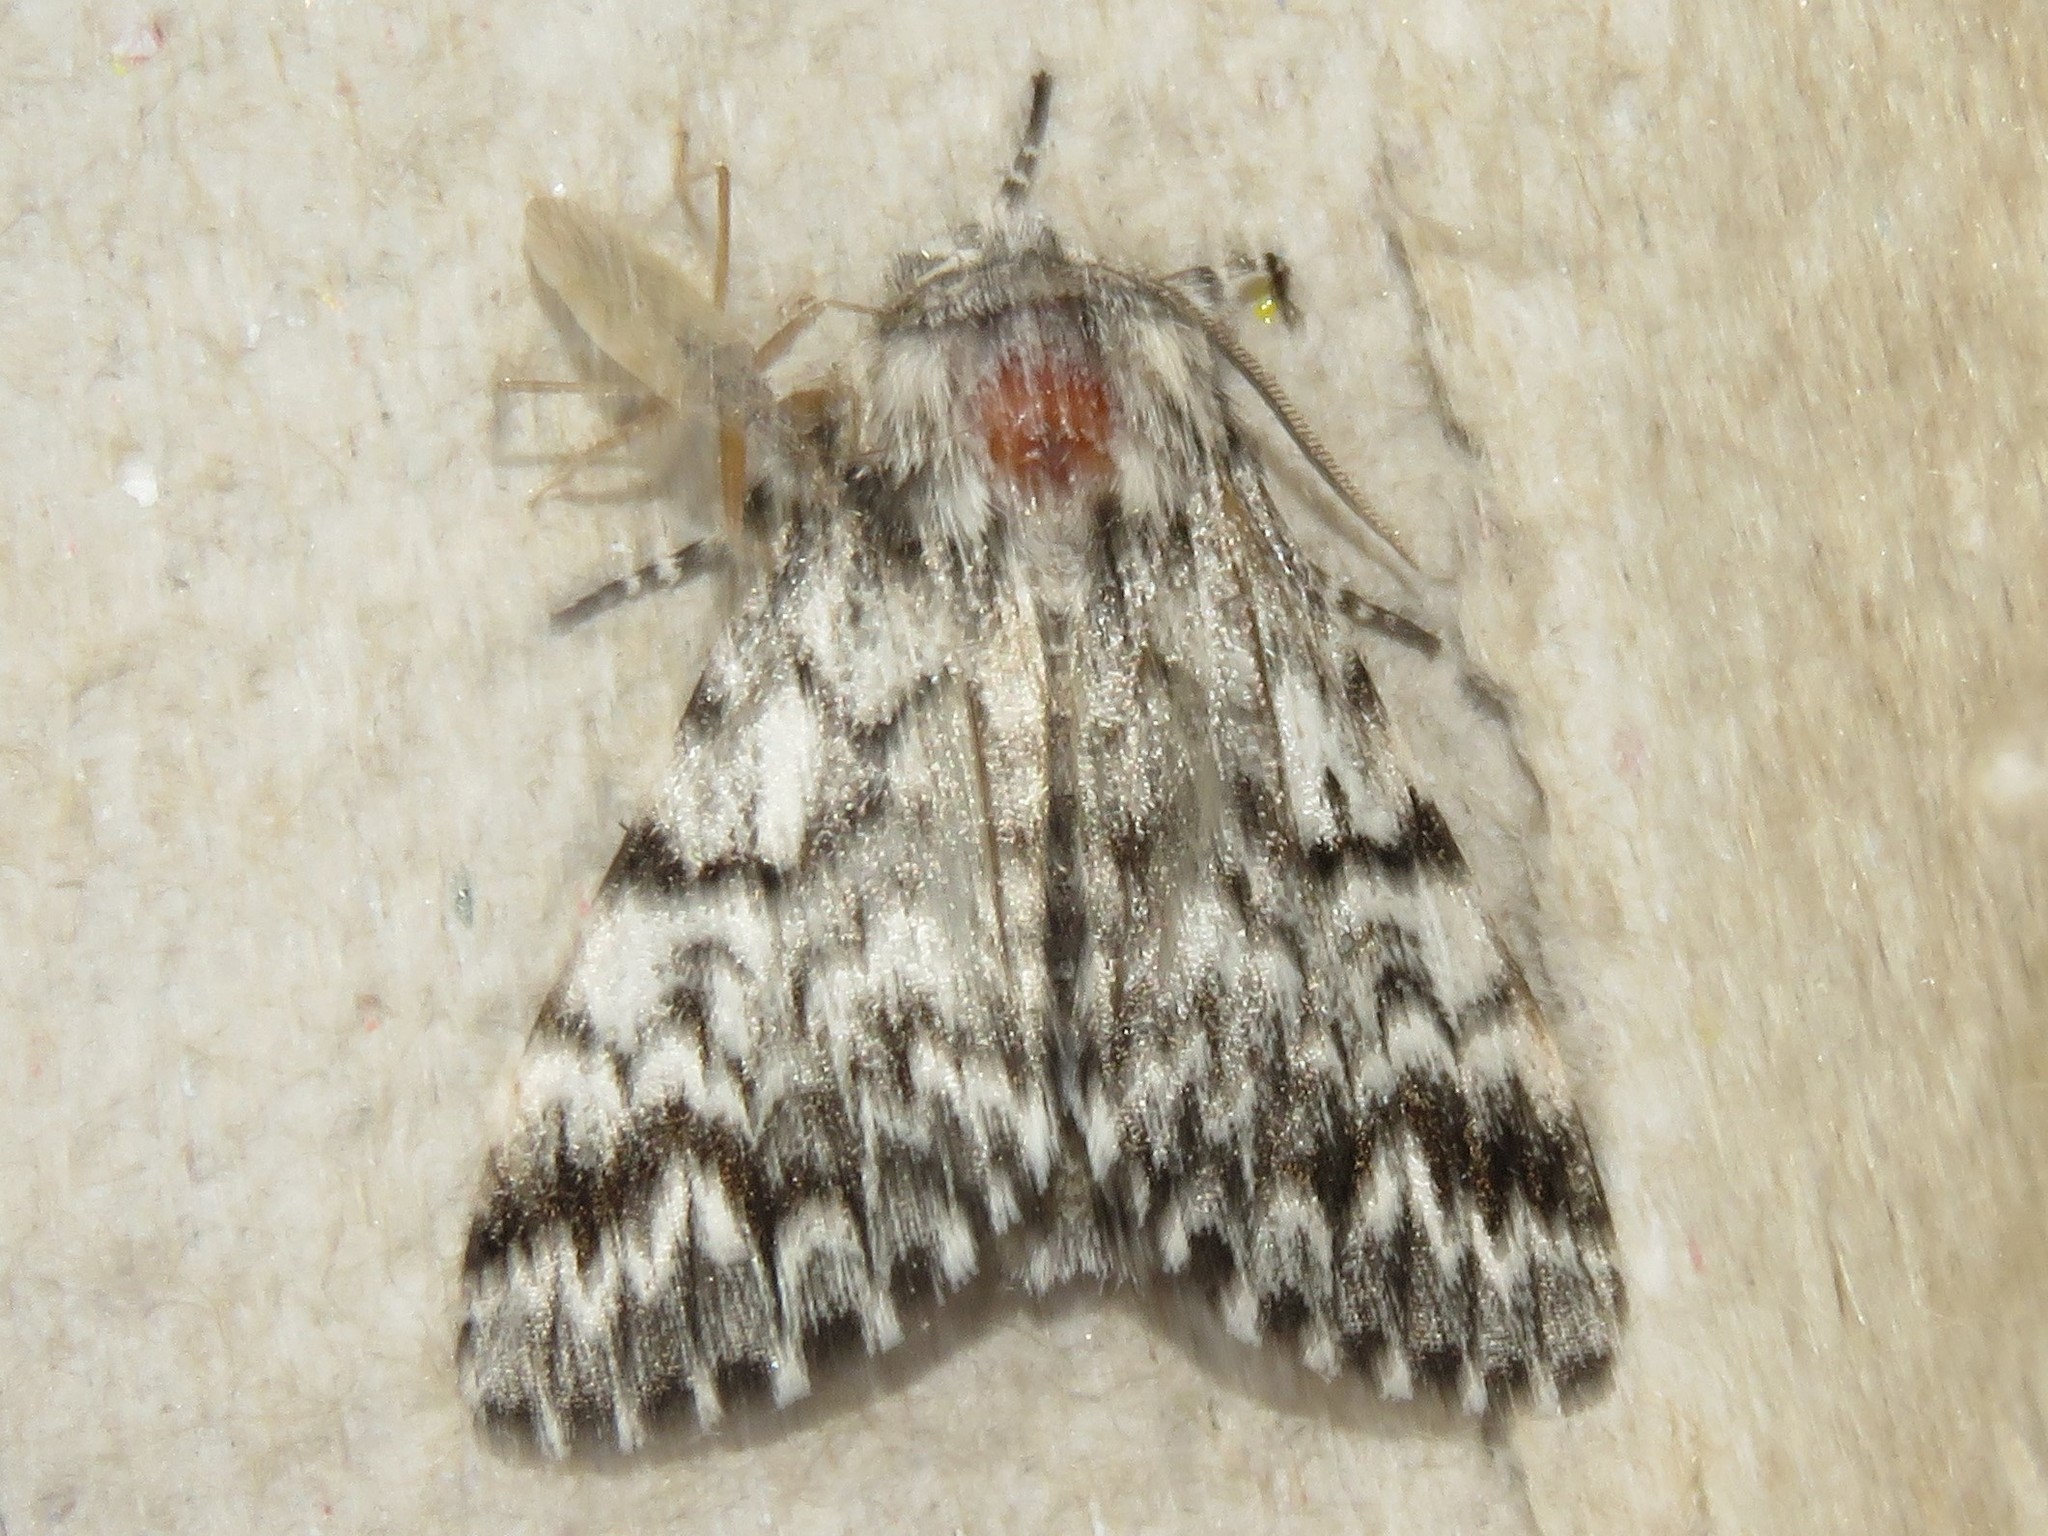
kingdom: Animalia
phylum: Arthropoda
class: Insecta
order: Lepidoptera
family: Noctuidae
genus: Panthea
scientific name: Panthea acronyctoides
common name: Black zigzag moth
